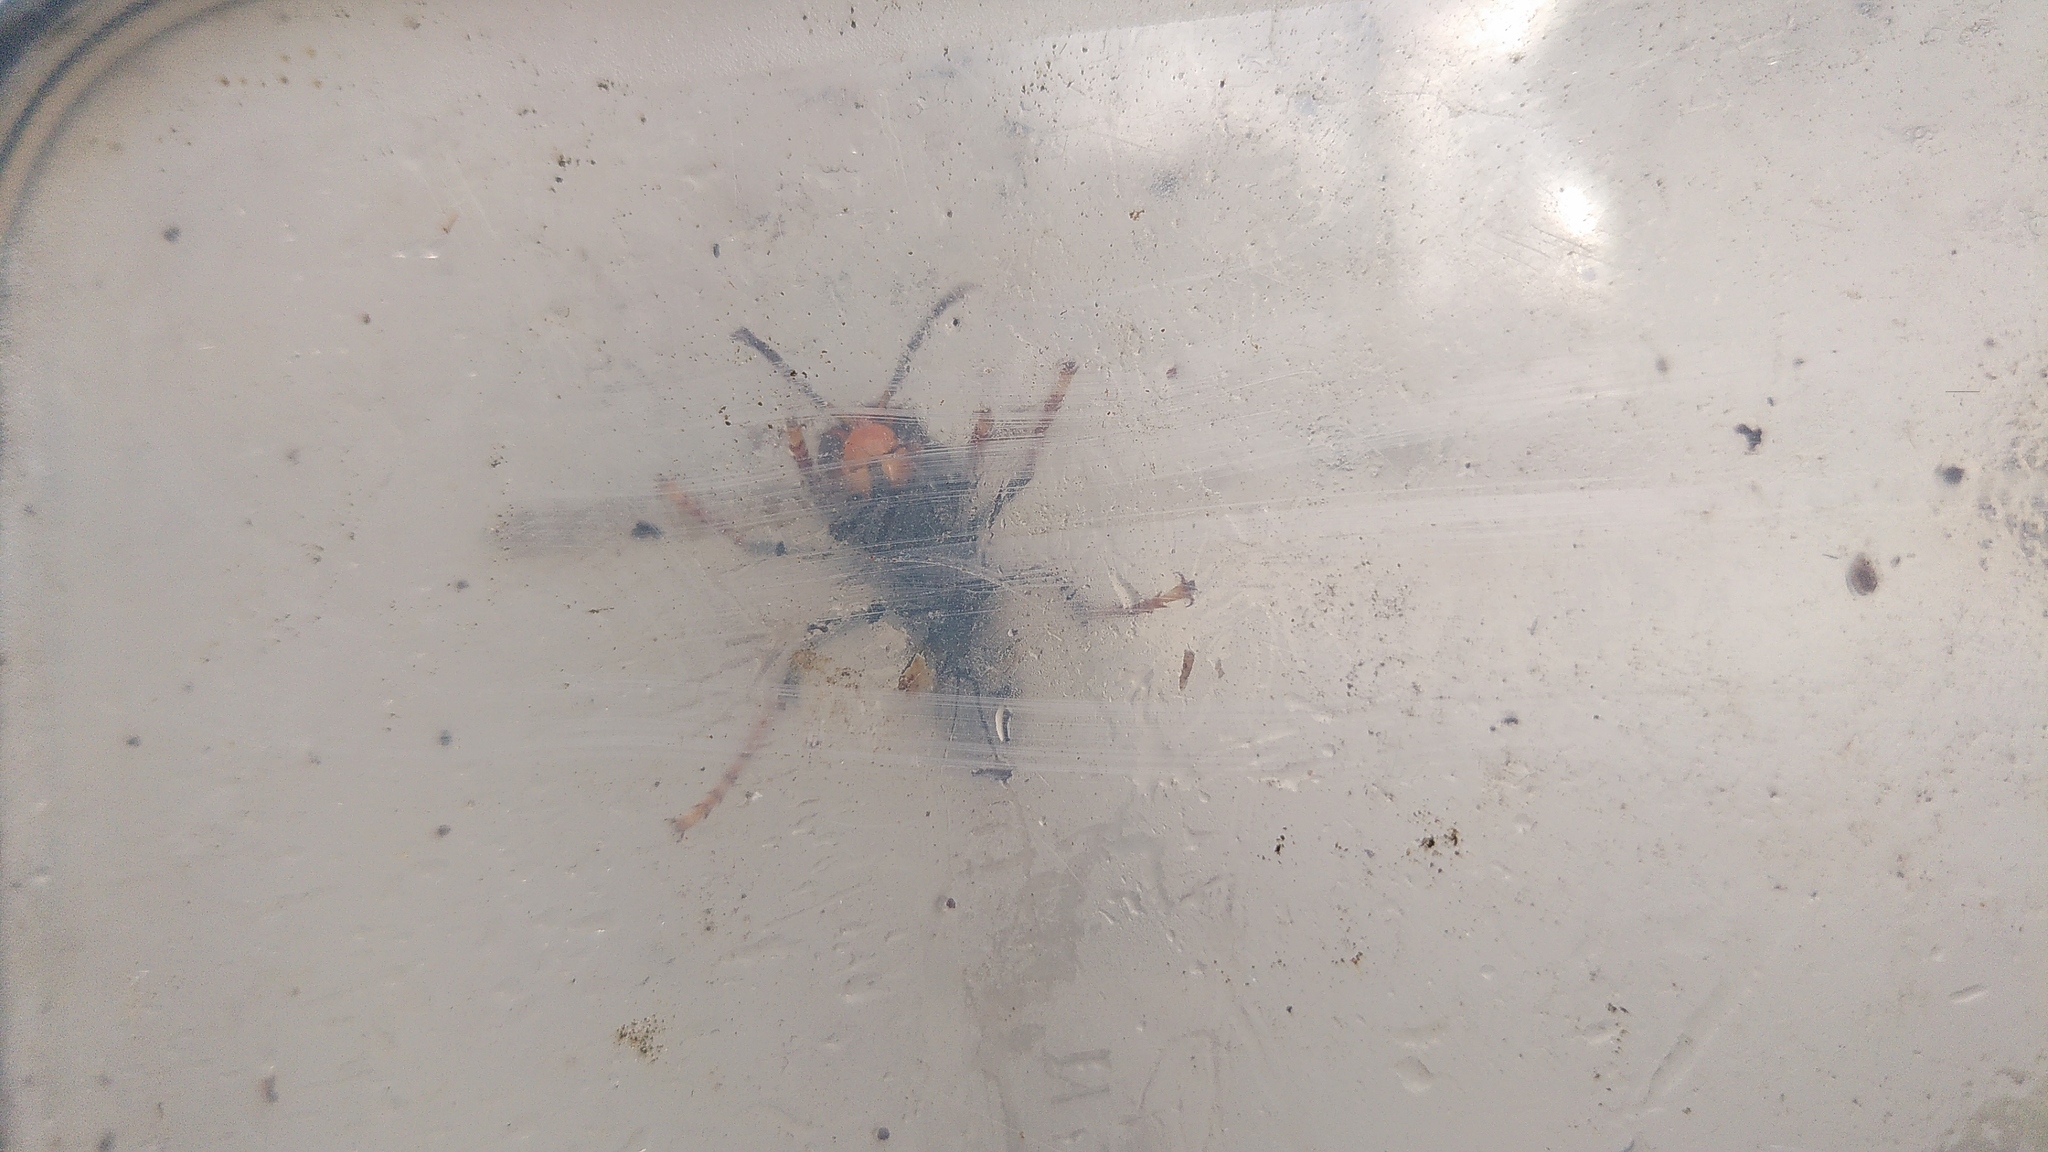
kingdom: Animalia
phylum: Arthropoda
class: Insecta
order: Hymenoptera
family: Vespidae
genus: Vespa
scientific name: Vespa velutina
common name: Asian hornet
